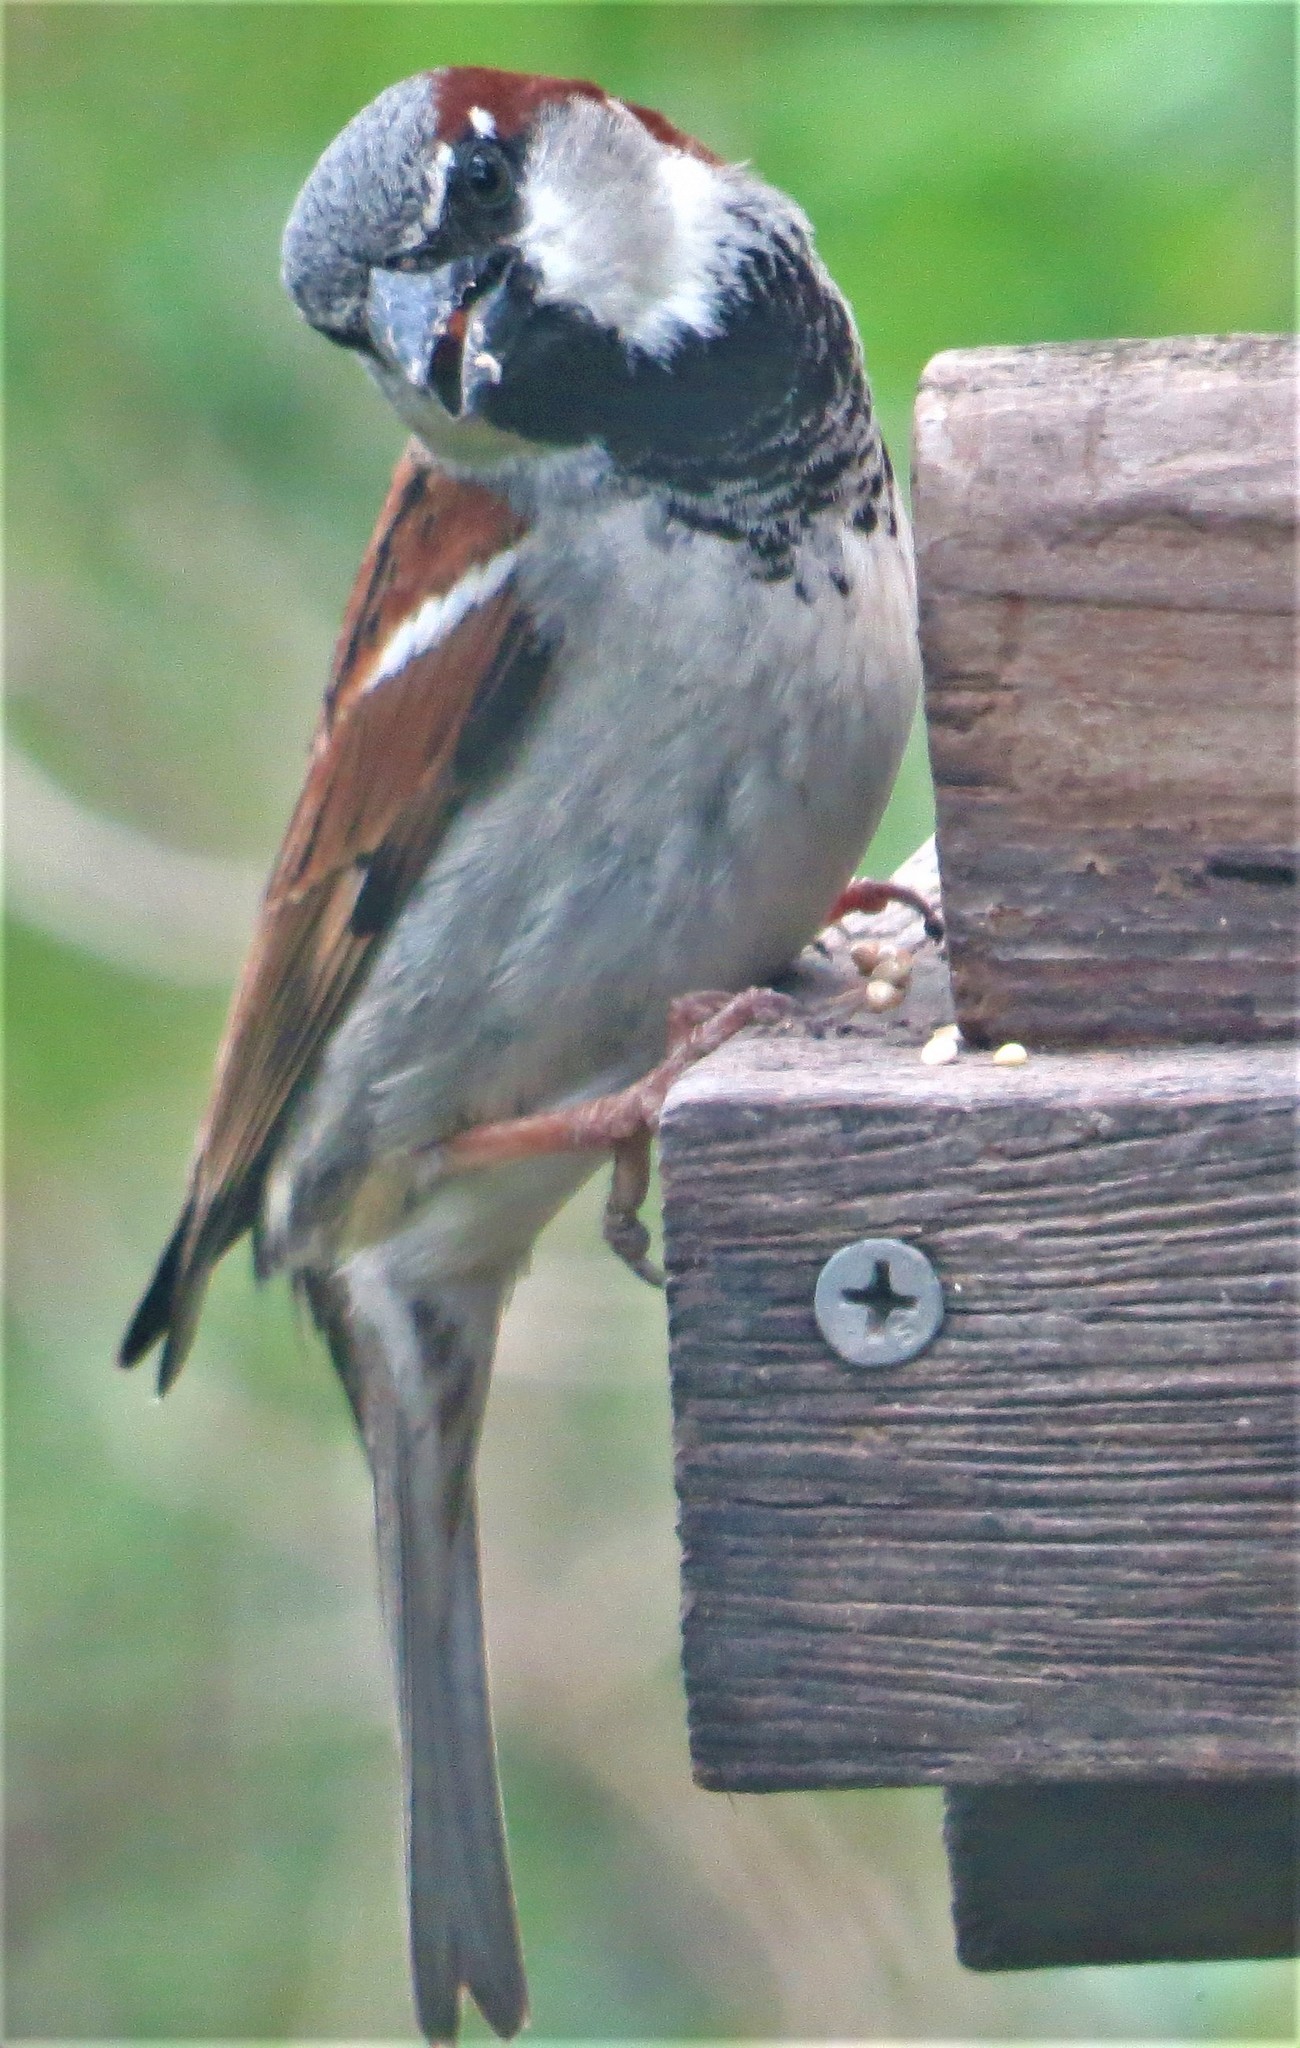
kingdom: Animalia
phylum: Chordata
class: Aves
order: Passeriformes
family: Passeridae
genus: Passer
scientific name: Passer domesticus
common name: House sparrow
